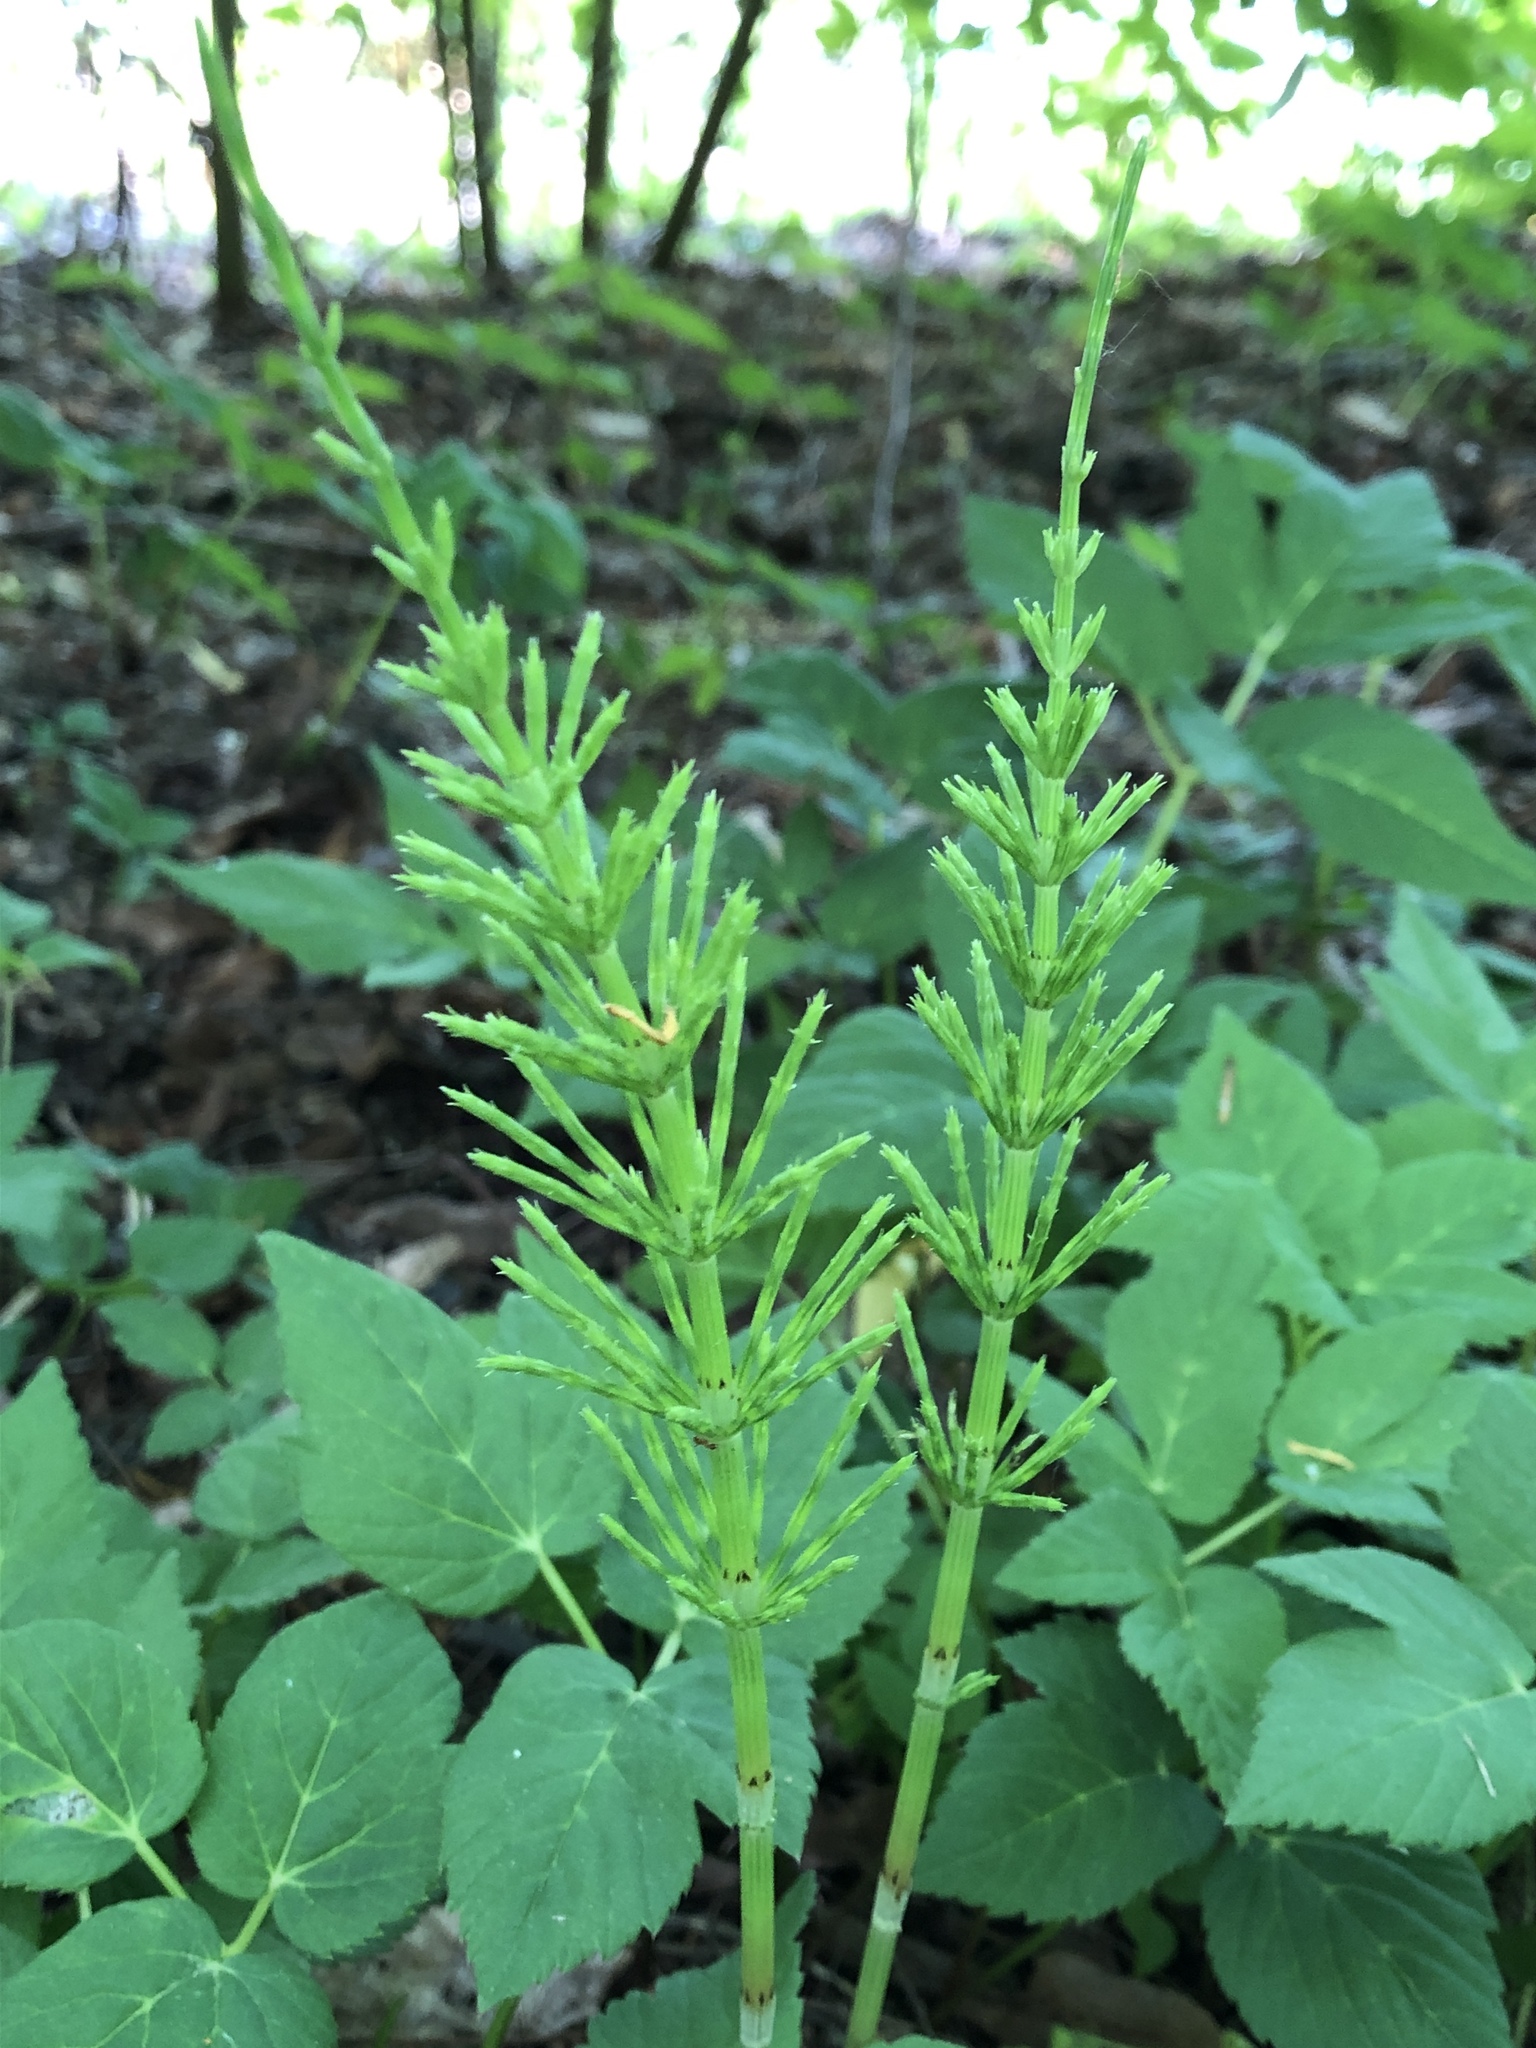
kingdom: Plantae
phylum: Tracheophyta
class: Polypodiopsida
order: Equisetales
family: Equisetaceae
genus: Equisetum
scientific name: Equisetum arvense
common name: Field horsetail
